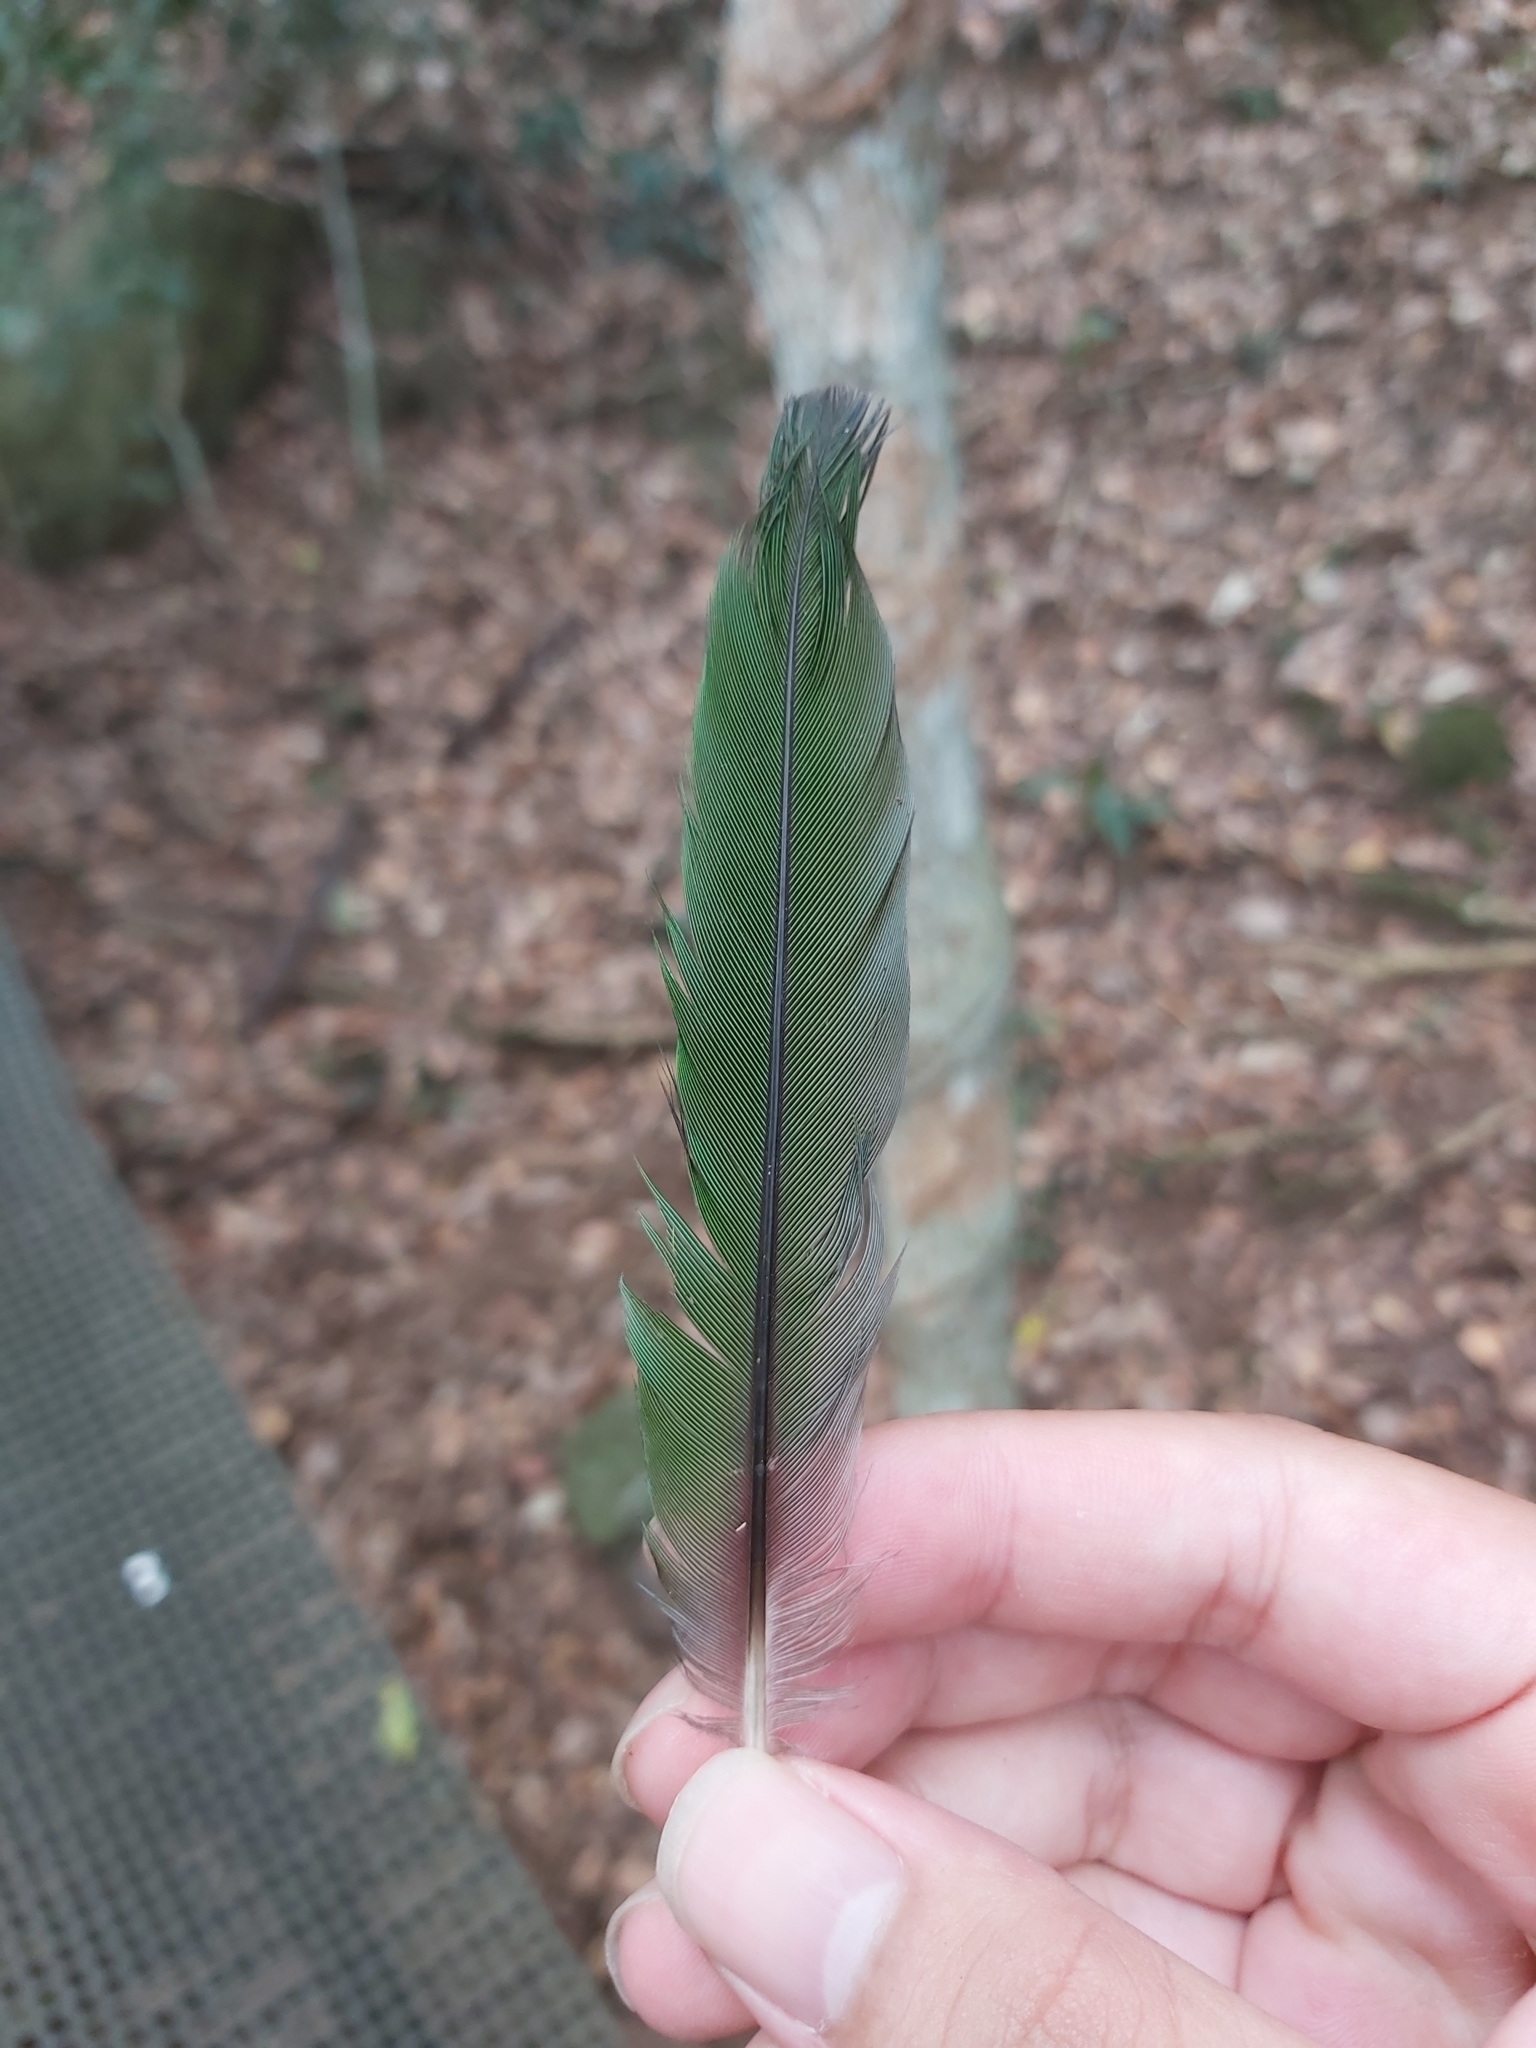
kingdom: Animalia
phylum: Chordata
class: Aves
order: Passeriformes
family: Ptilonorhynchidae
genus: Ailuroedus
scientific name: Ailuroedus crassirostris
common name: Green catbird
